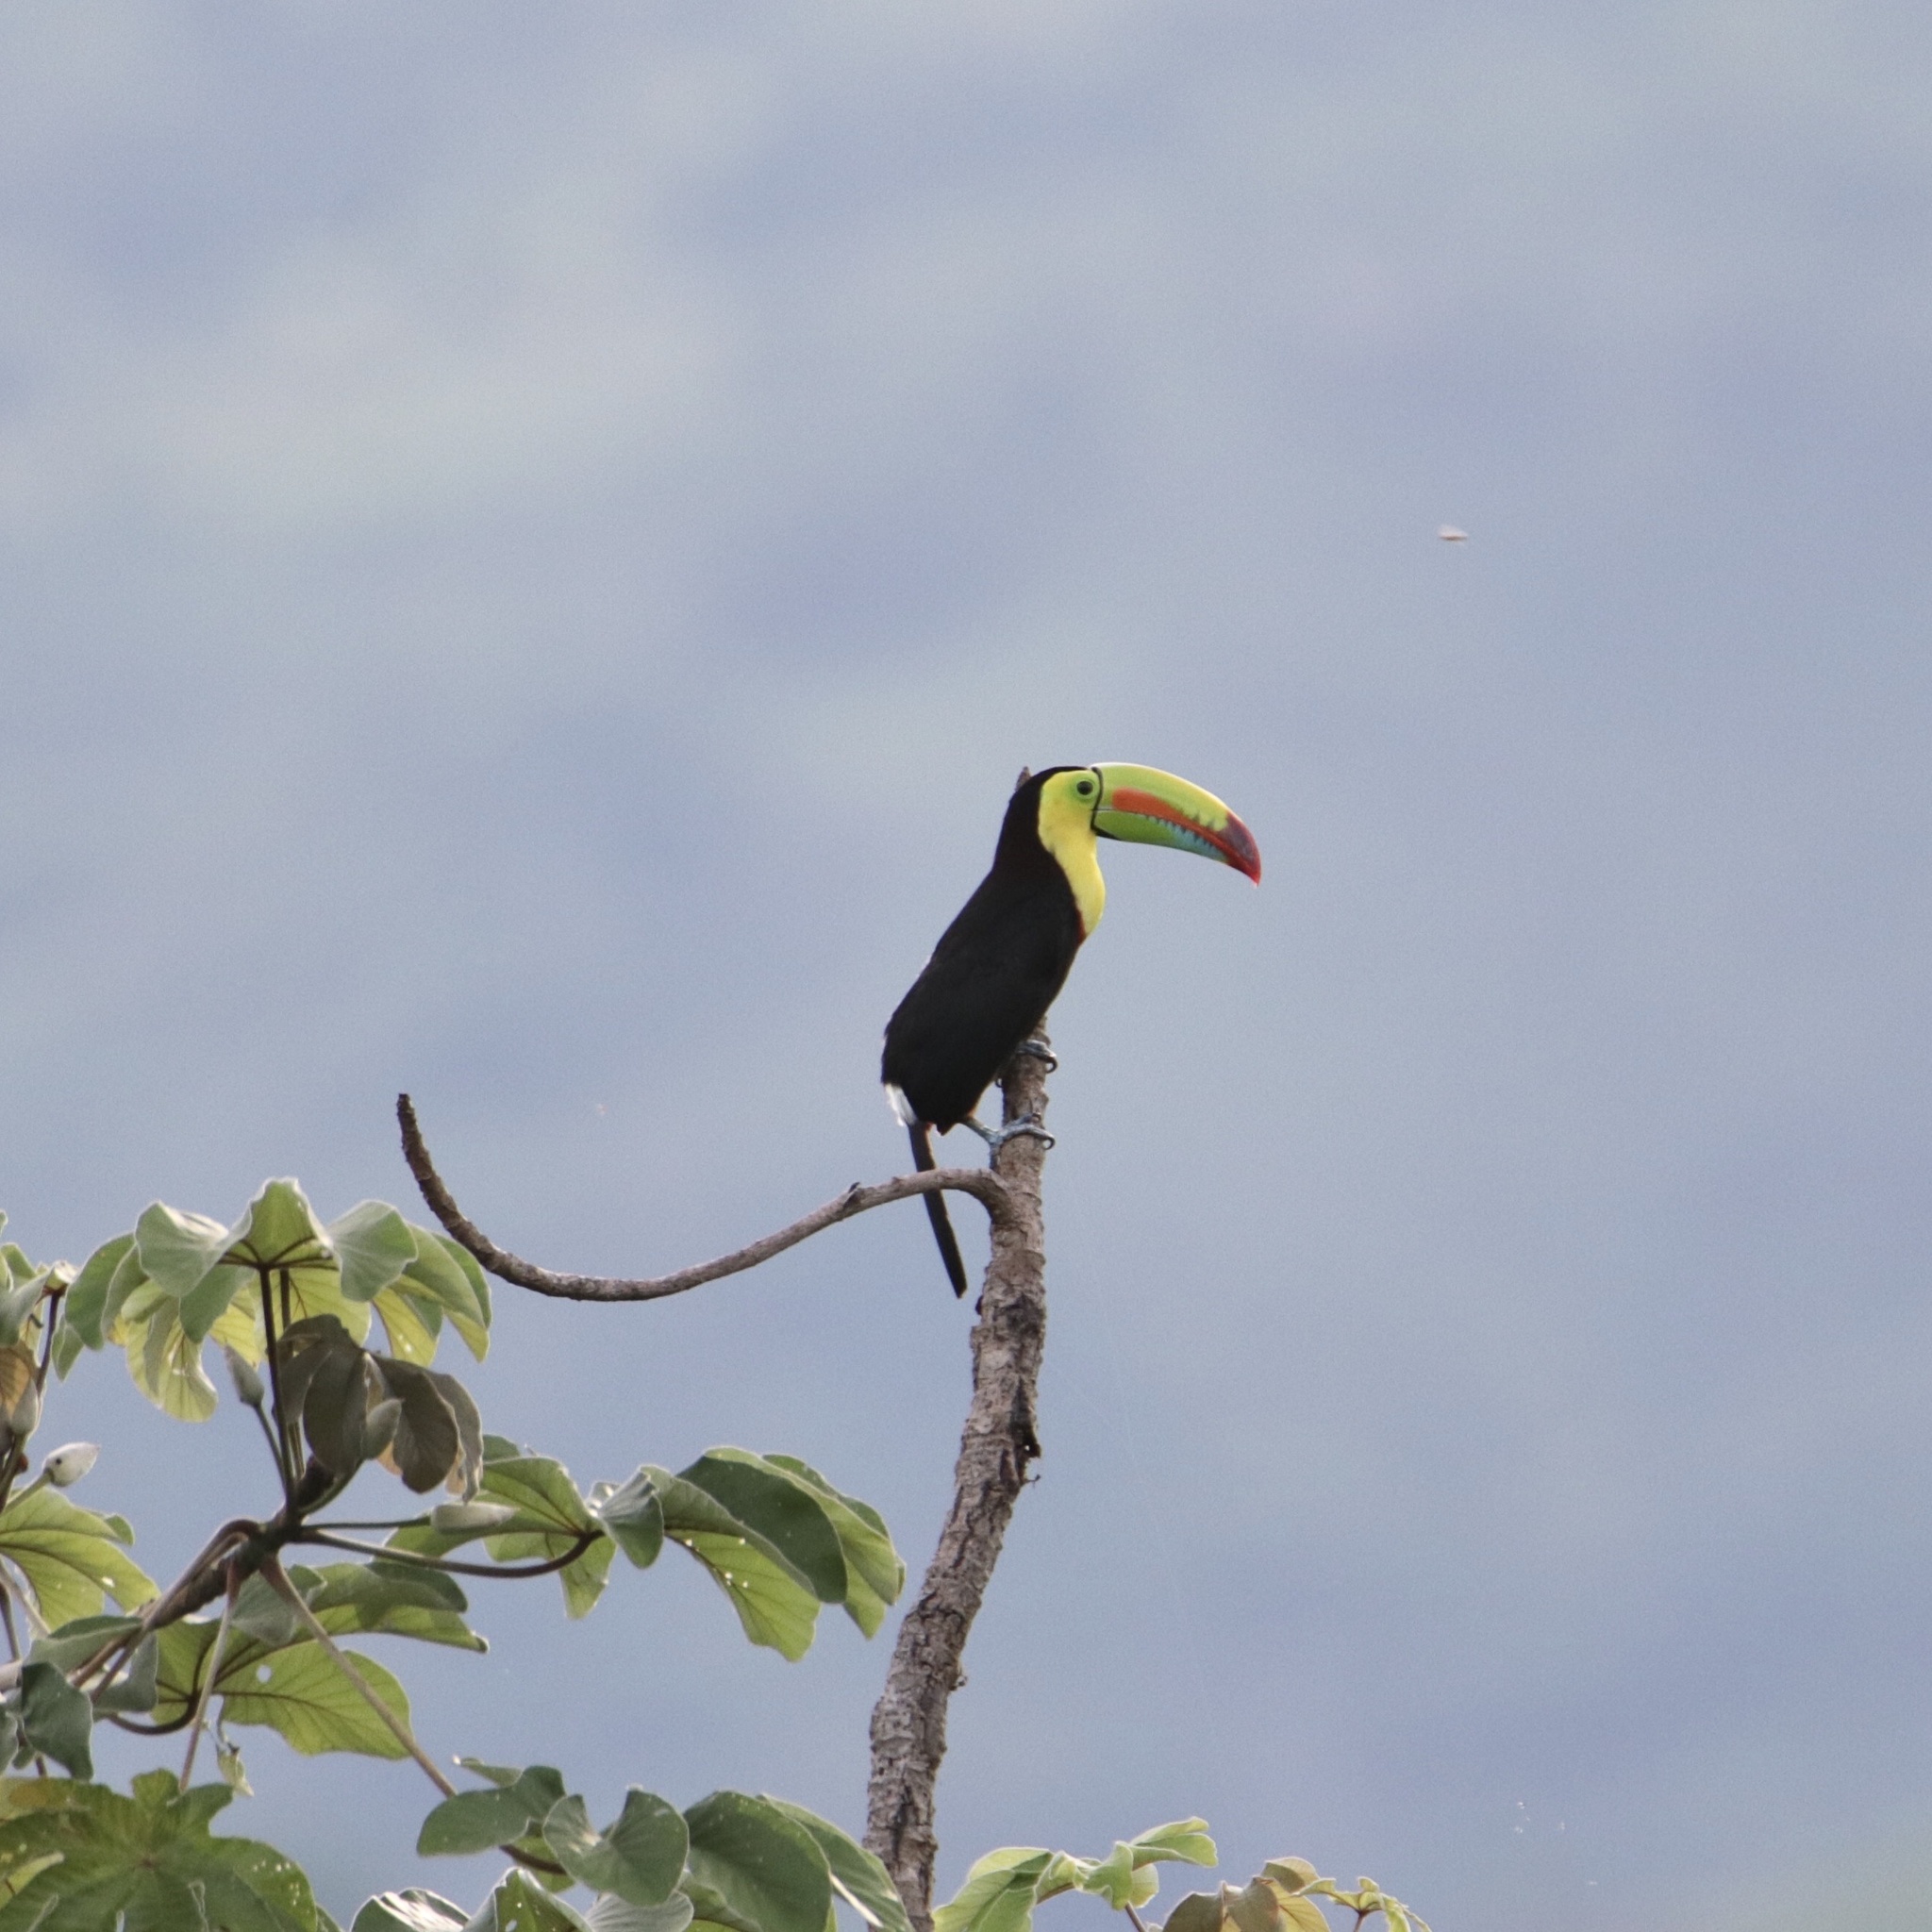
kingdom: Animalia
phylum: Chordata
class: Aves
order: Piciformes
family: Ramphastidae
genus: Ramphastos
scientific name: Ramphastos sulfuratus
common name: Keel-billed toucan
